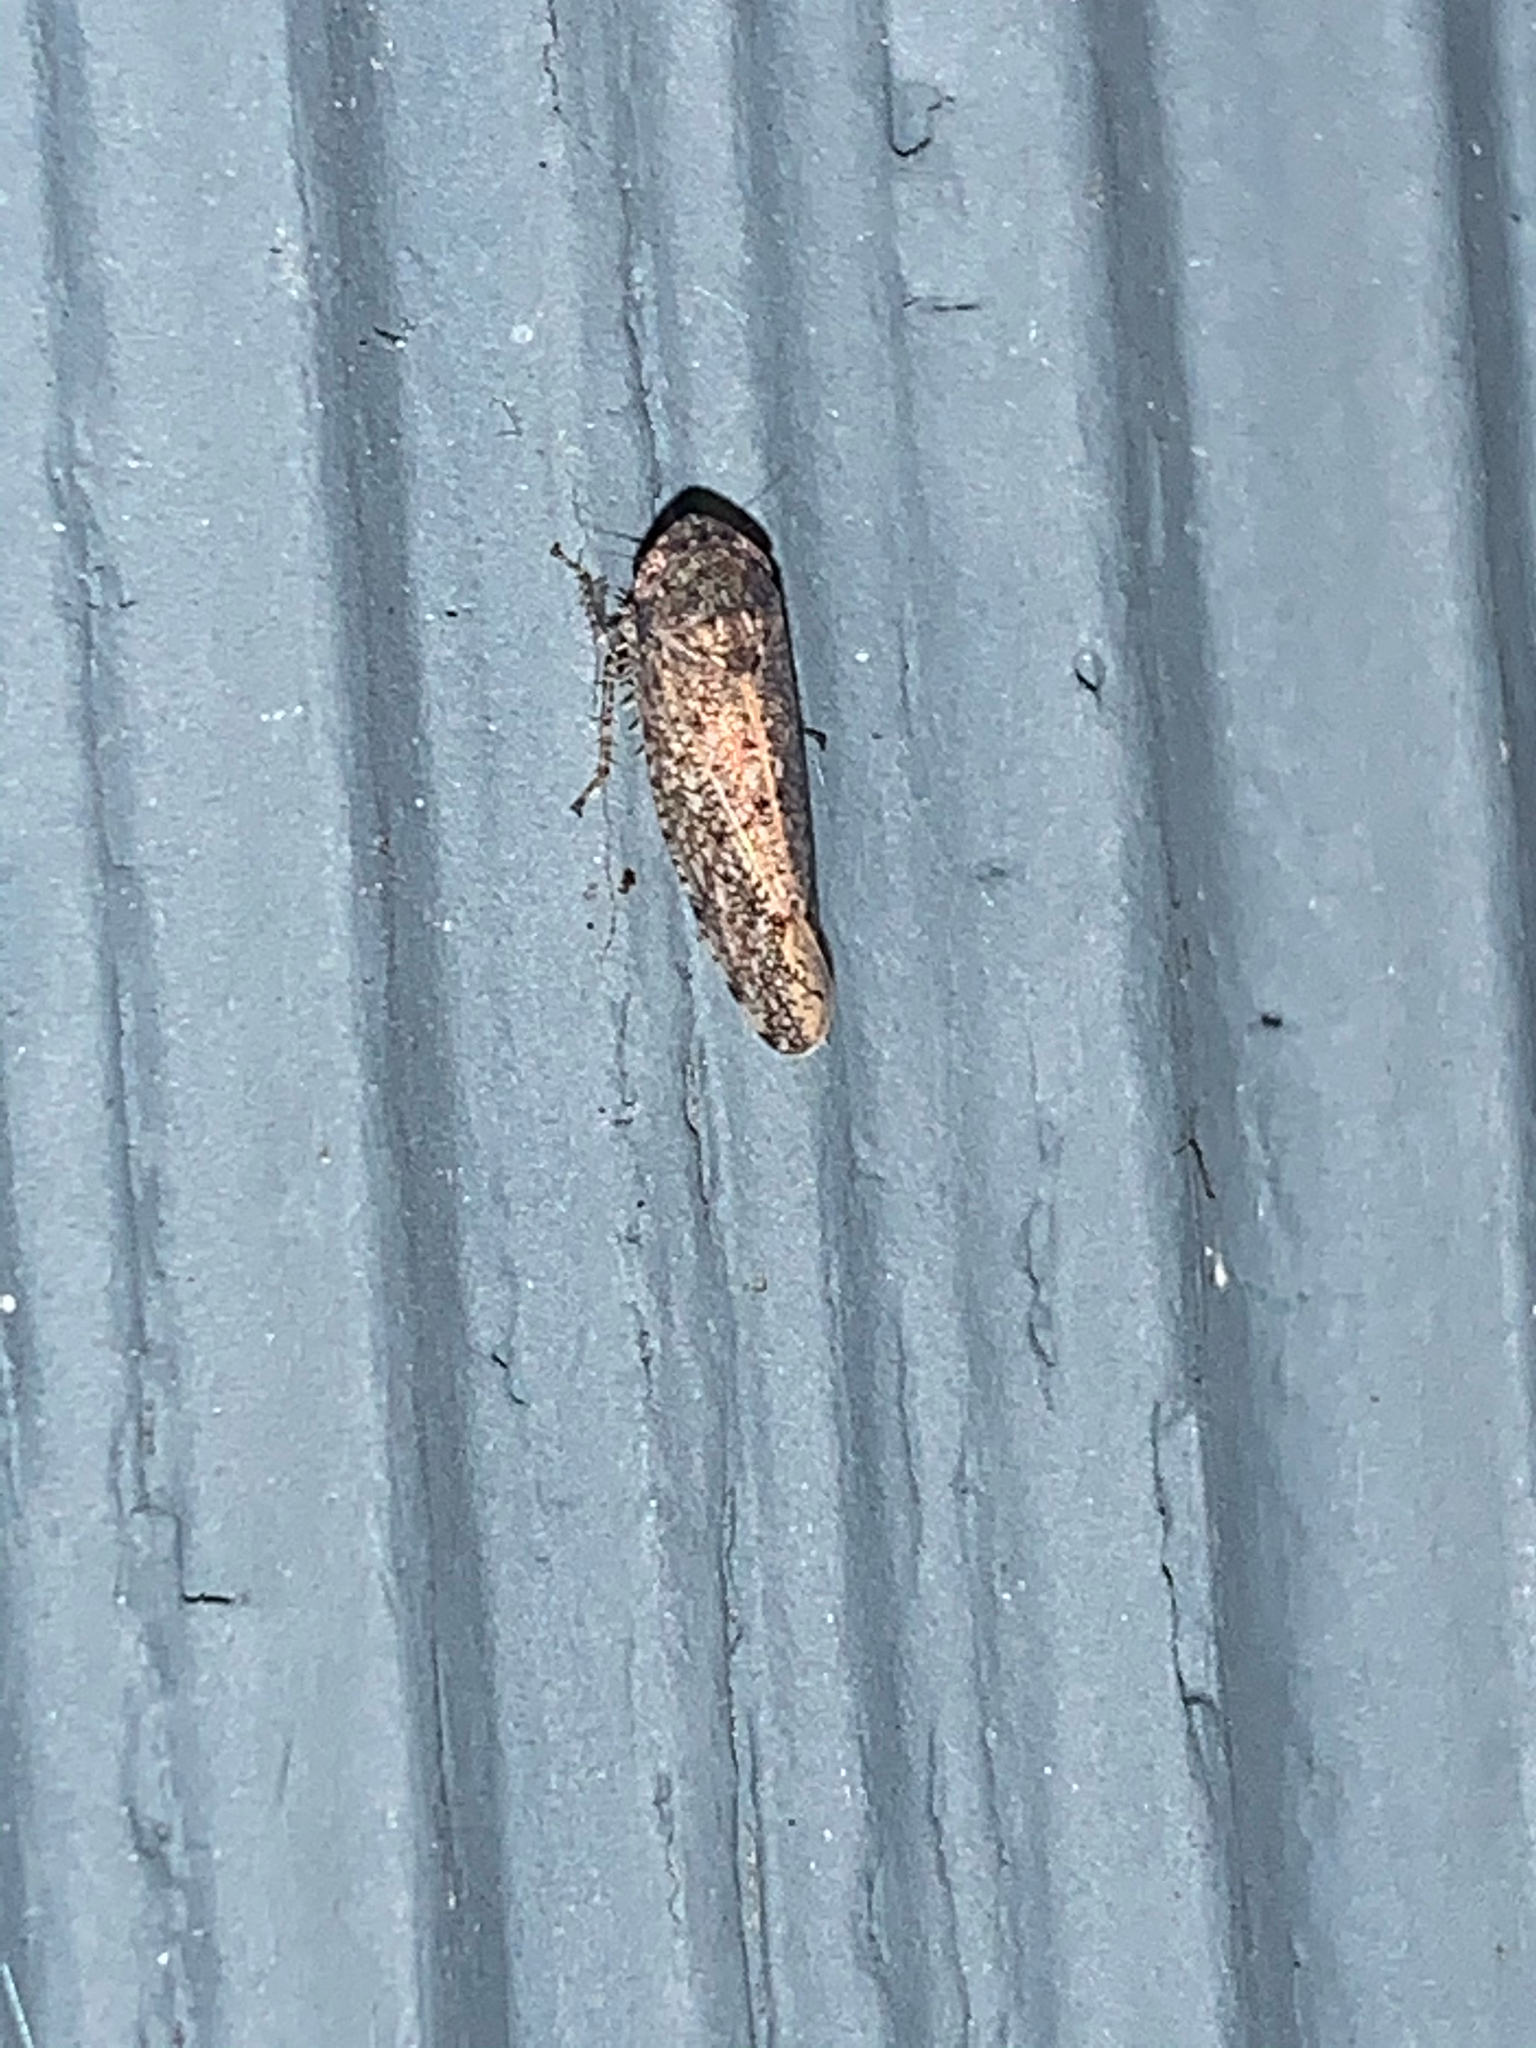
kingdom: Animalia
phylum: Arthropoda
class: Insecta
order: Hemiptera
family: Cicadellidae
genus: Paraphlepsius
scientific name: Paraphlepsius
